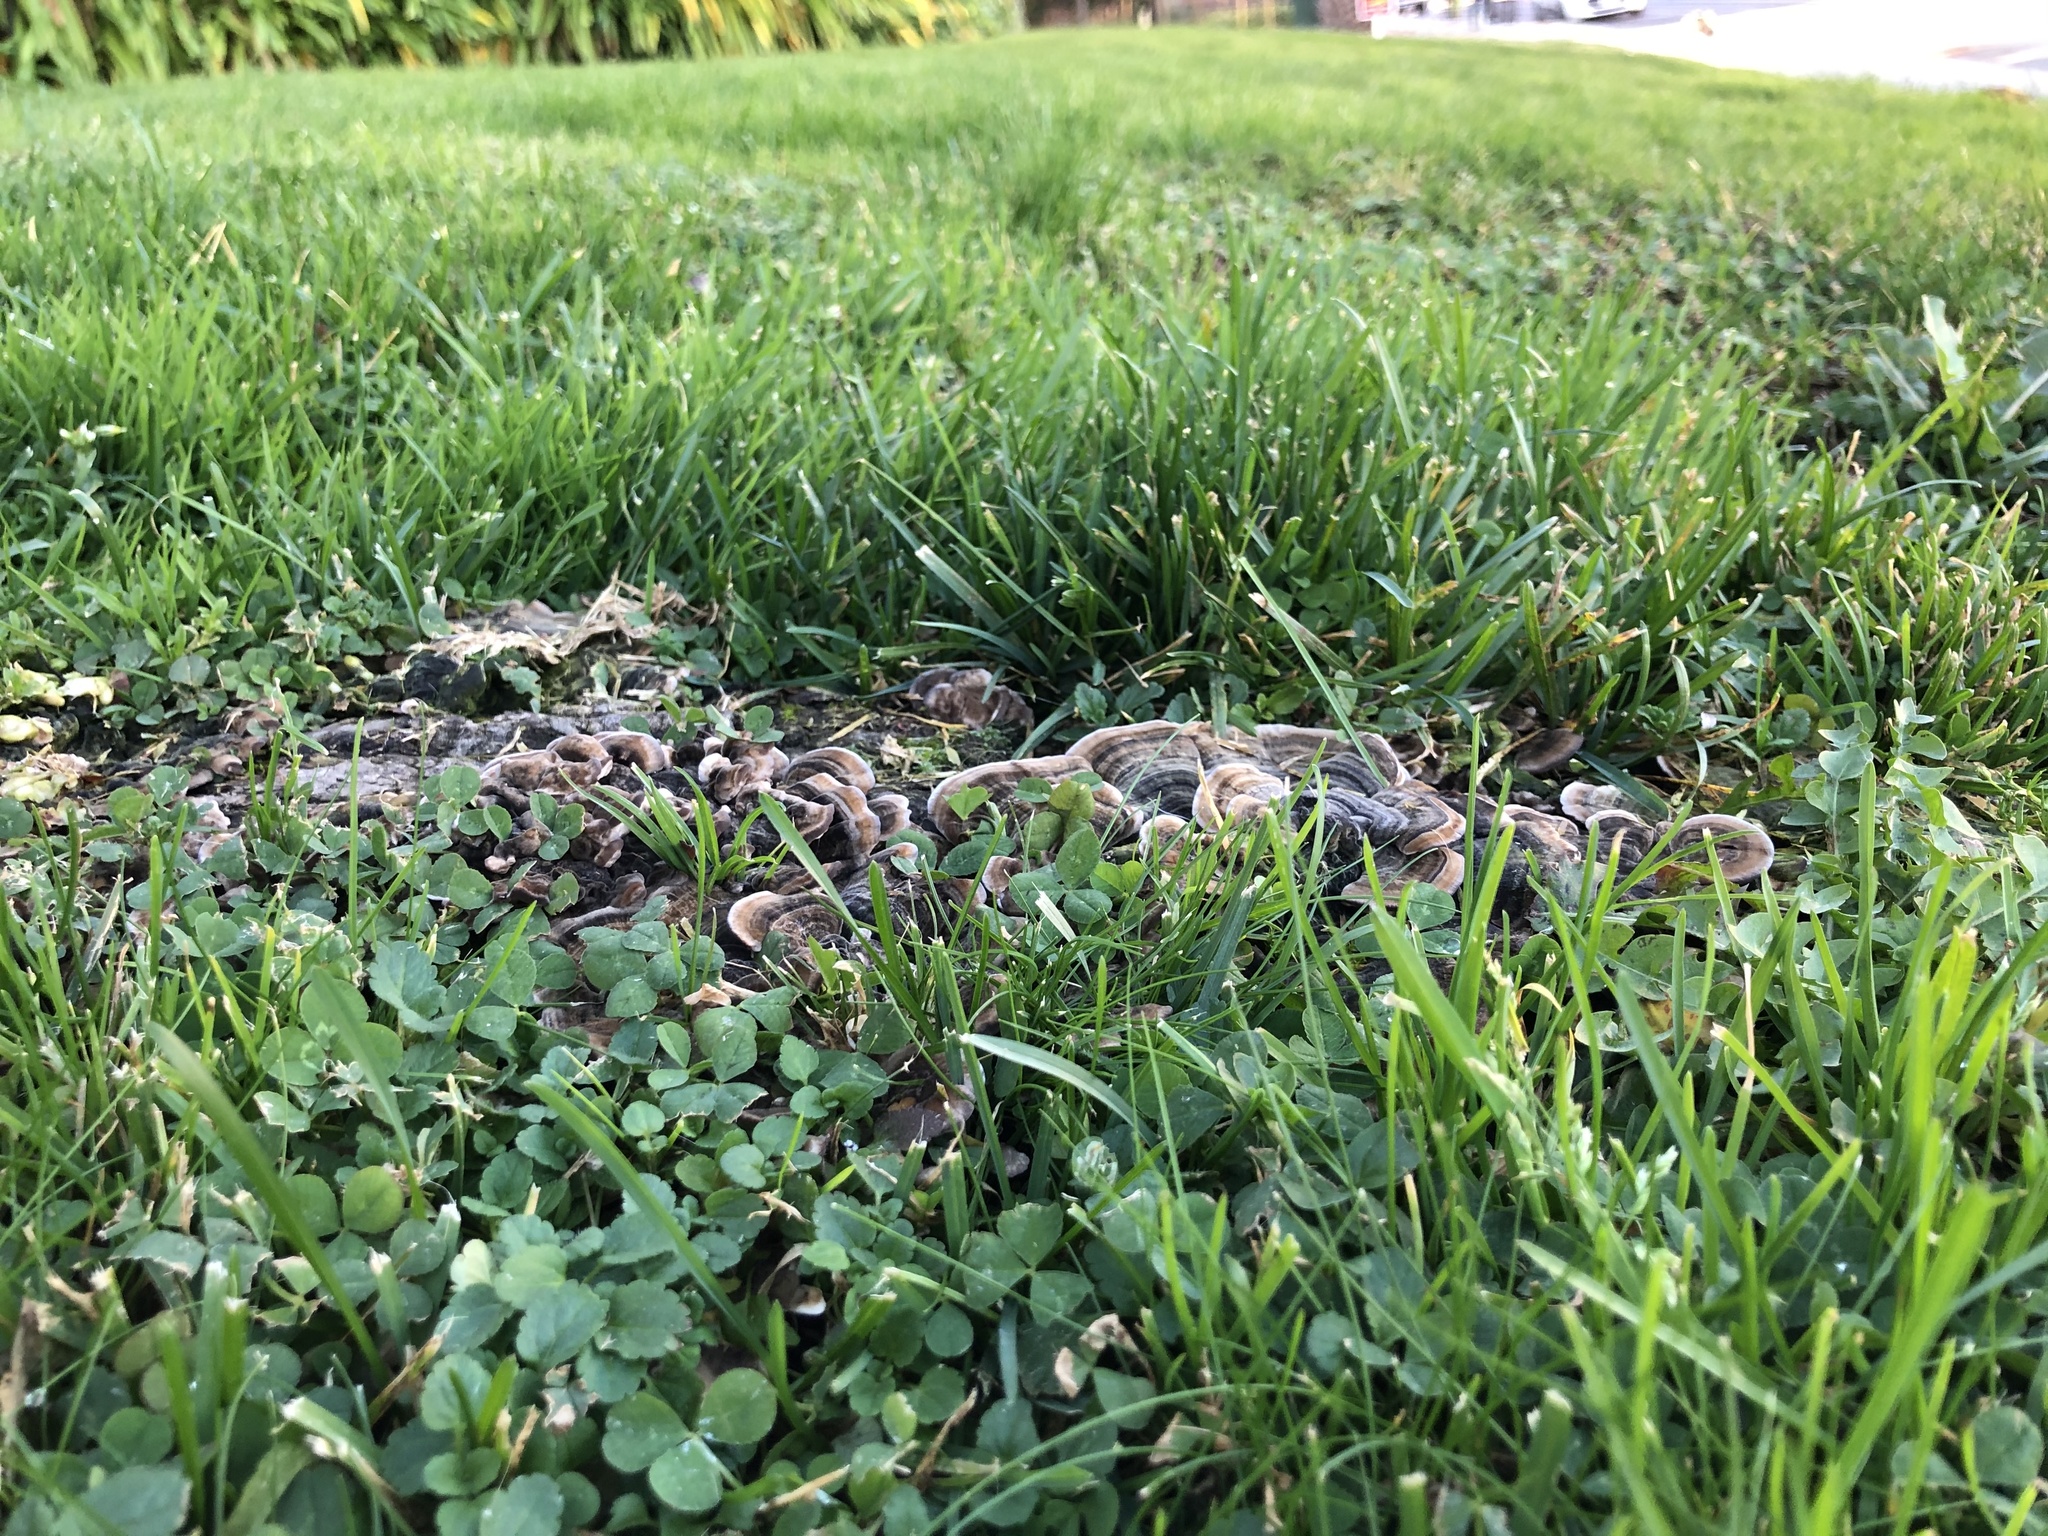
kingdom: Fungi
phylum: Basidiomycota
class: Agaricomycetes
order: Polyporales
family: Polyporaceae
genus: Trametes
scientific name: Trametes versicolor
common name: Turkeytail
